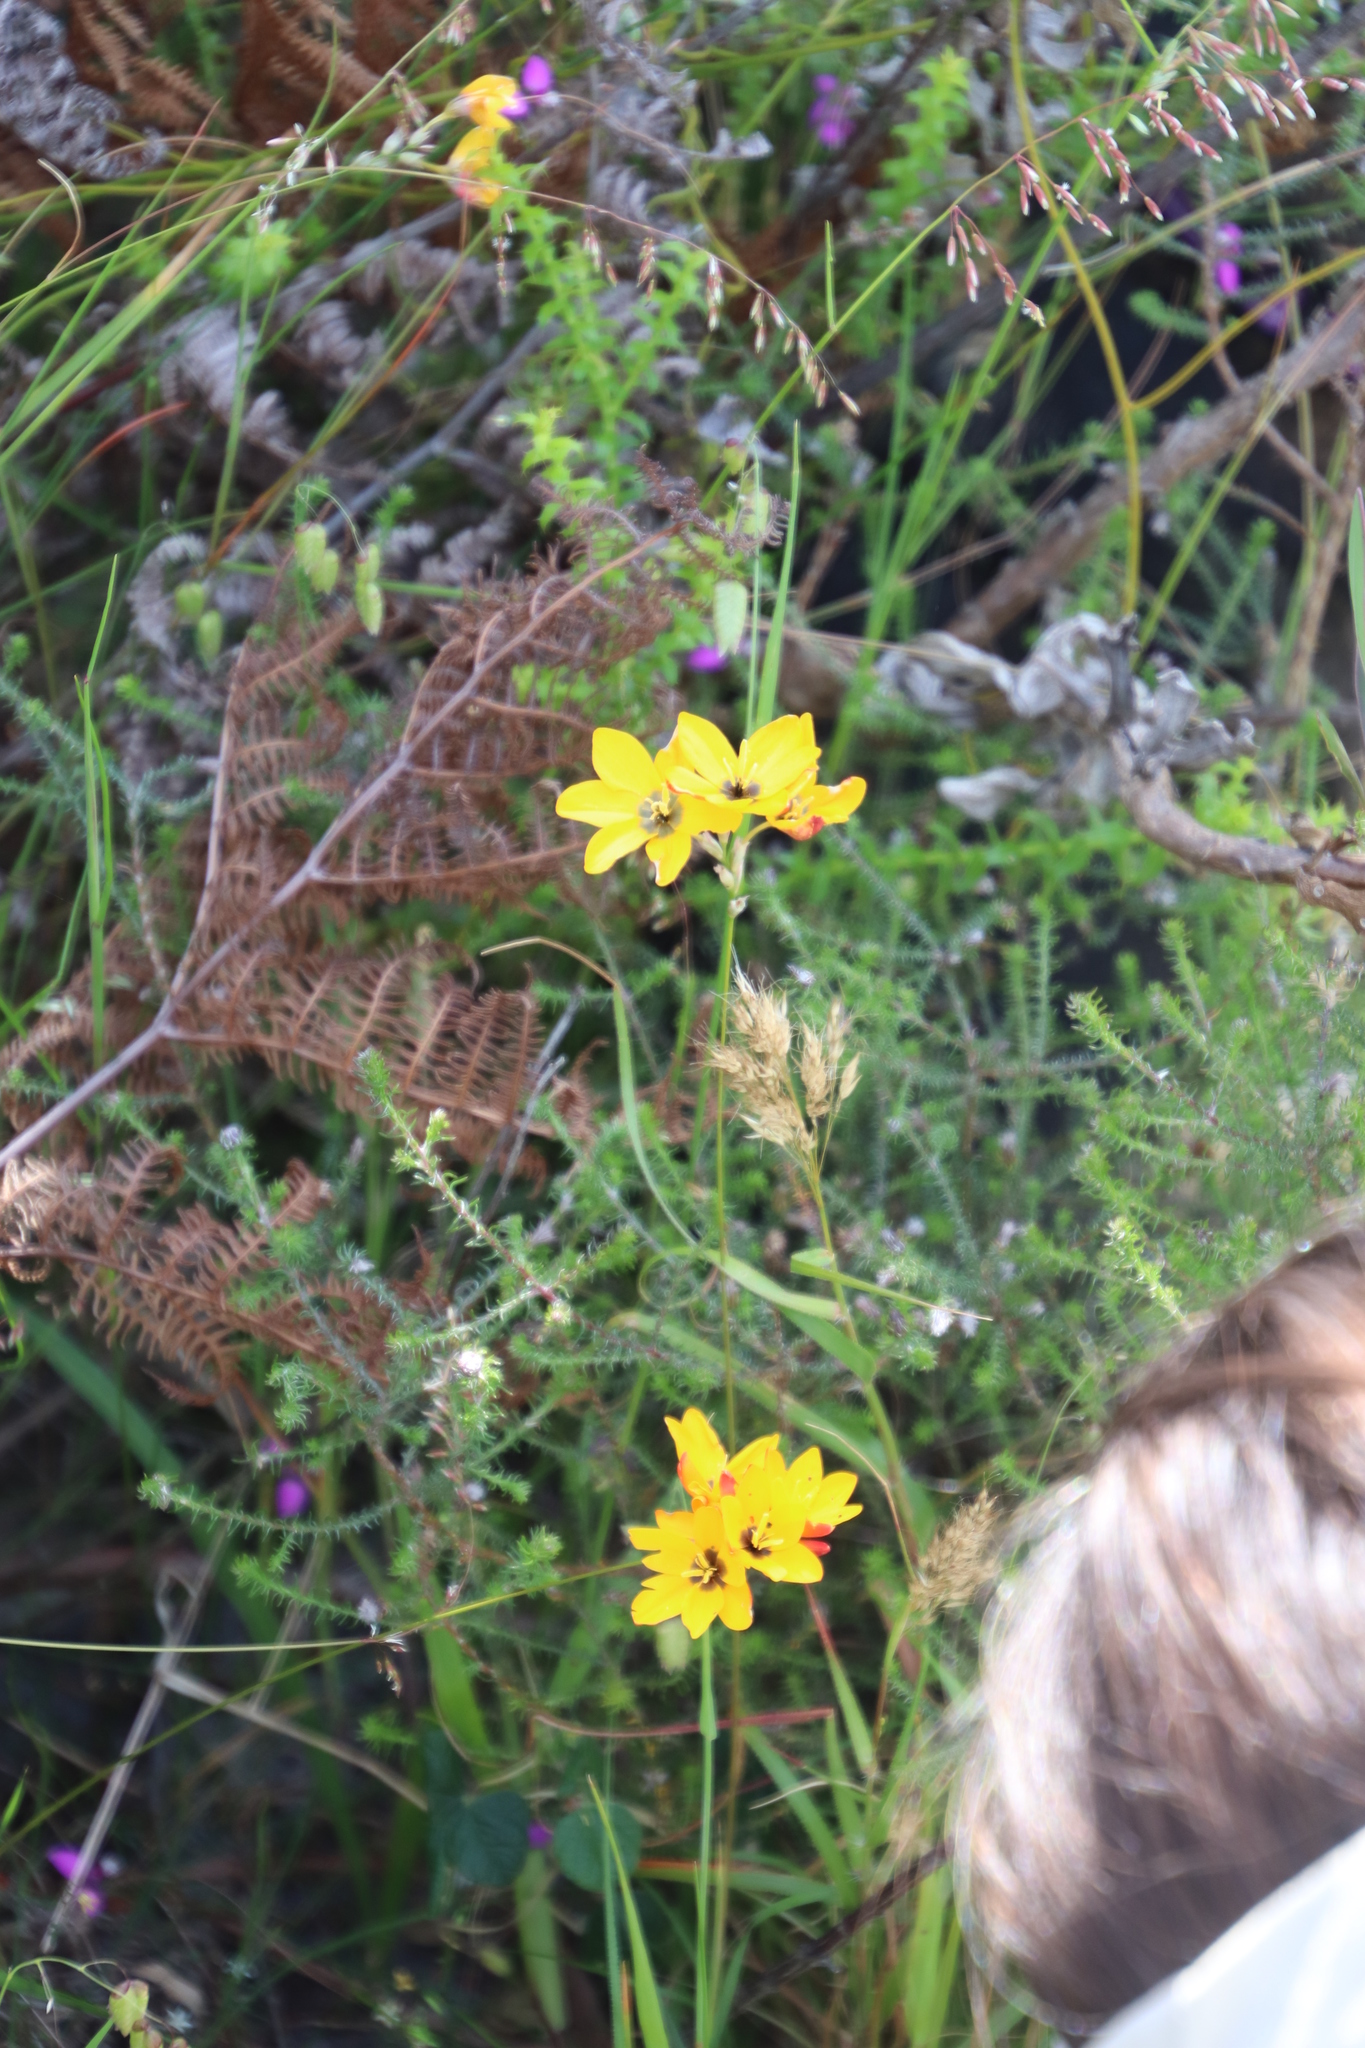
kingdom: Plantae
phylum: Tracheophyta
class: Liliopsida
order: Asparagales
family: Iridaceae
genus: Ixia
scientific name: Ixia dubia
